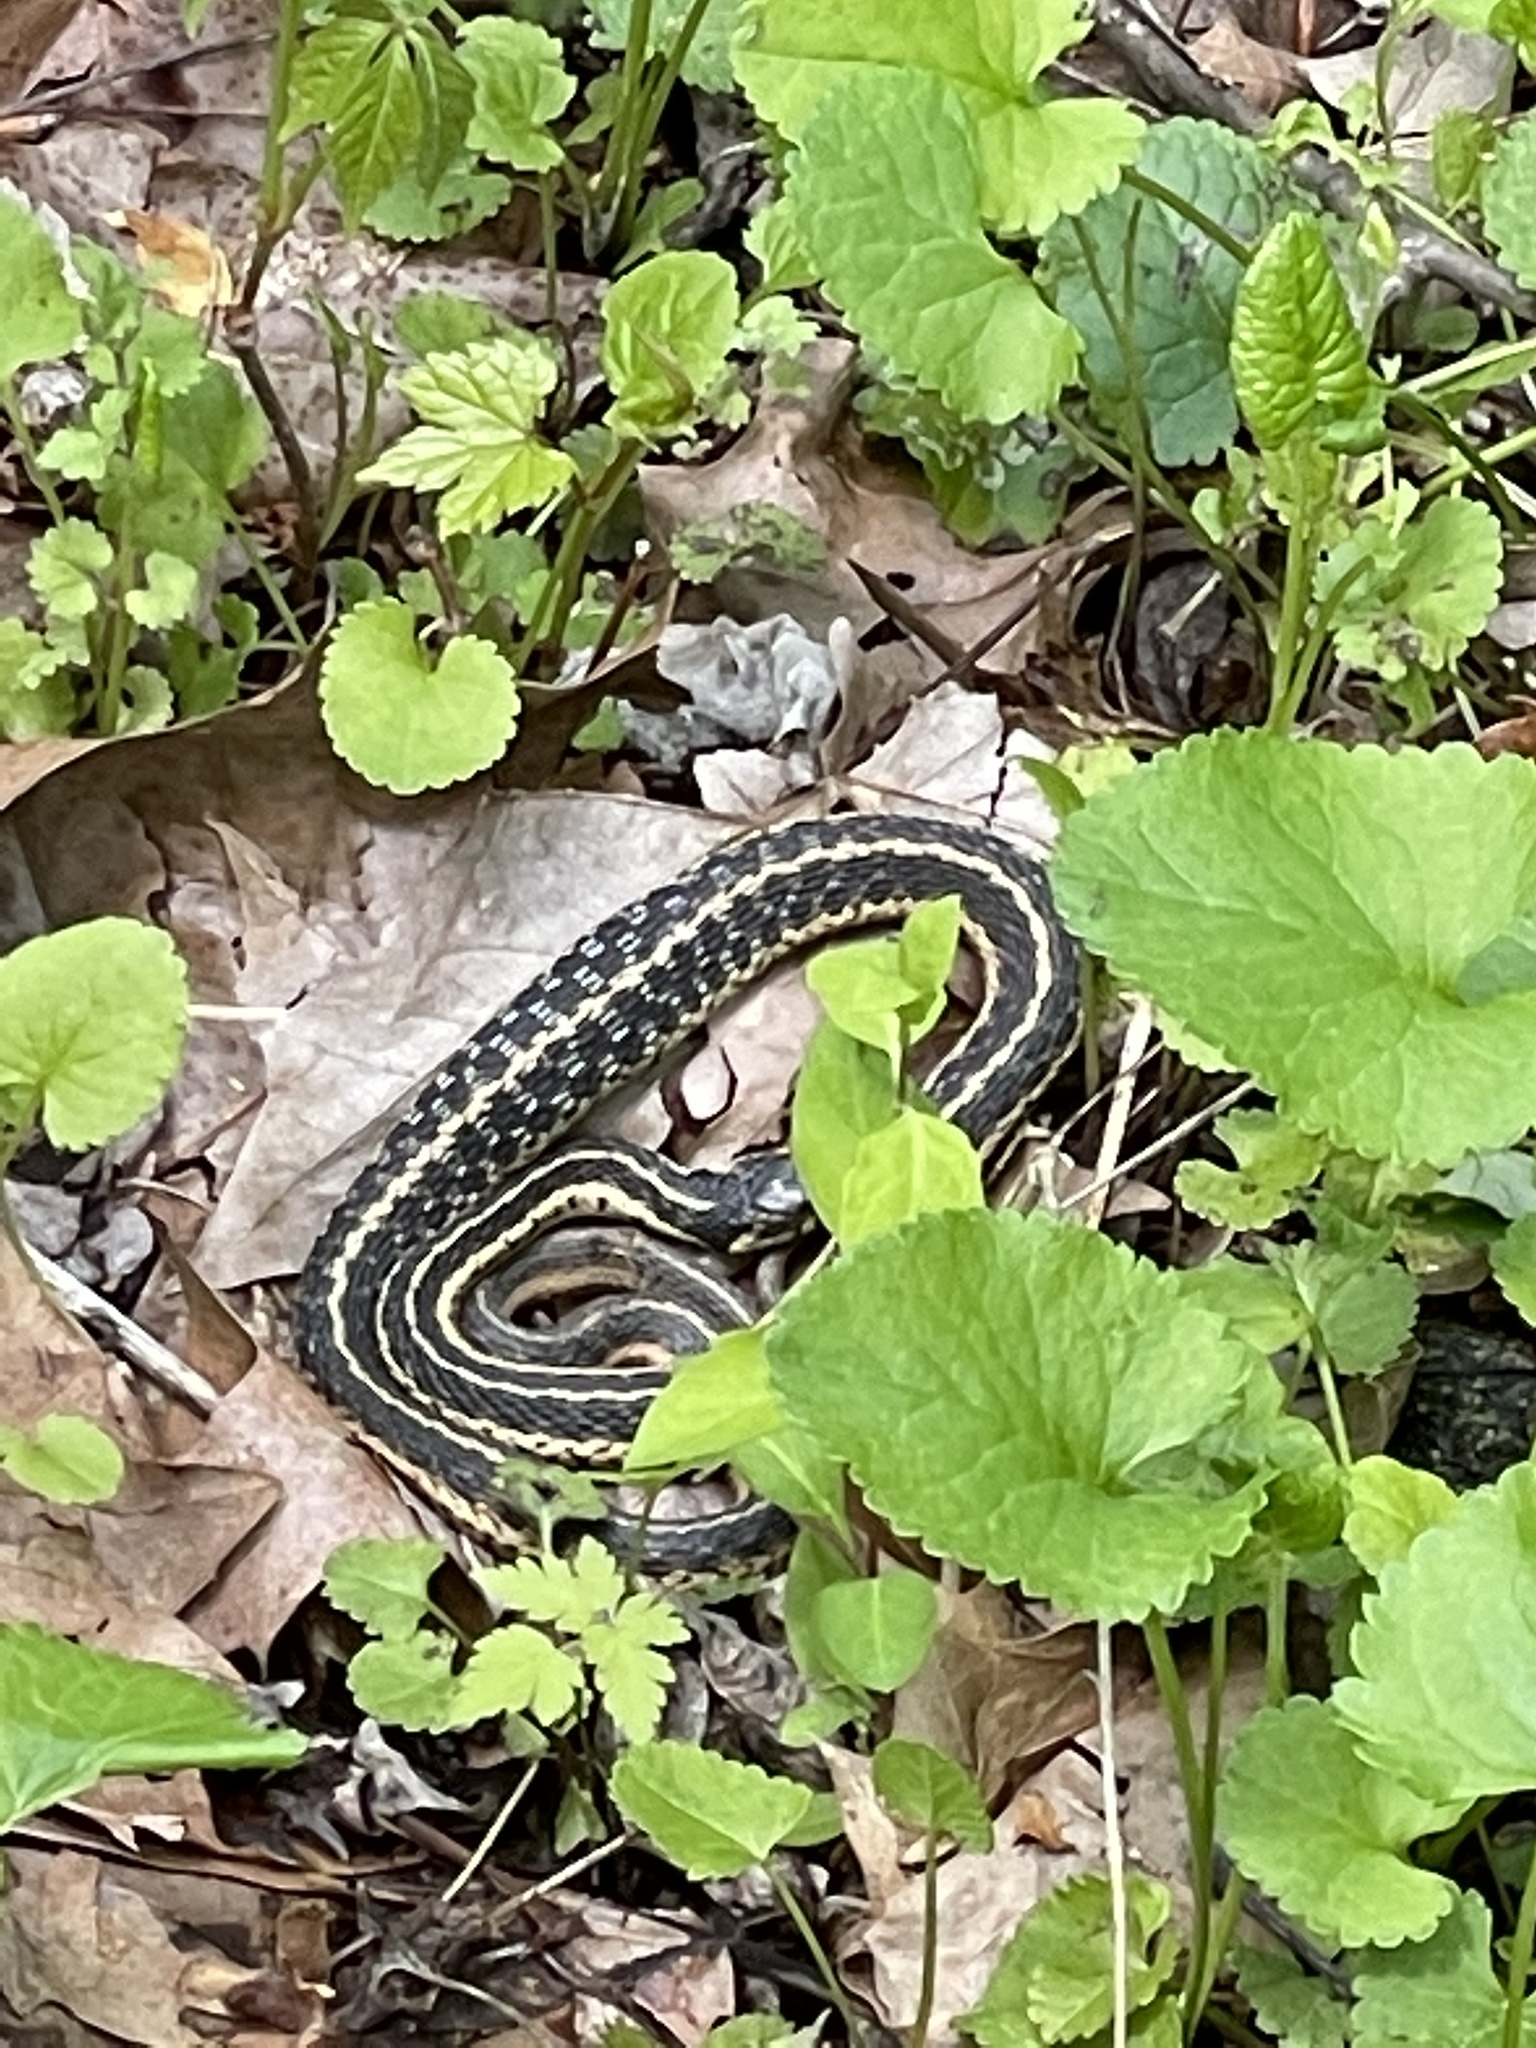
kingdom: Animalia
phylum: Chordata
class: Squamata
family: Colubridae
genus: Thamnophis
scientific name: Thamnophis sirtalis
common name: Common garter snake
